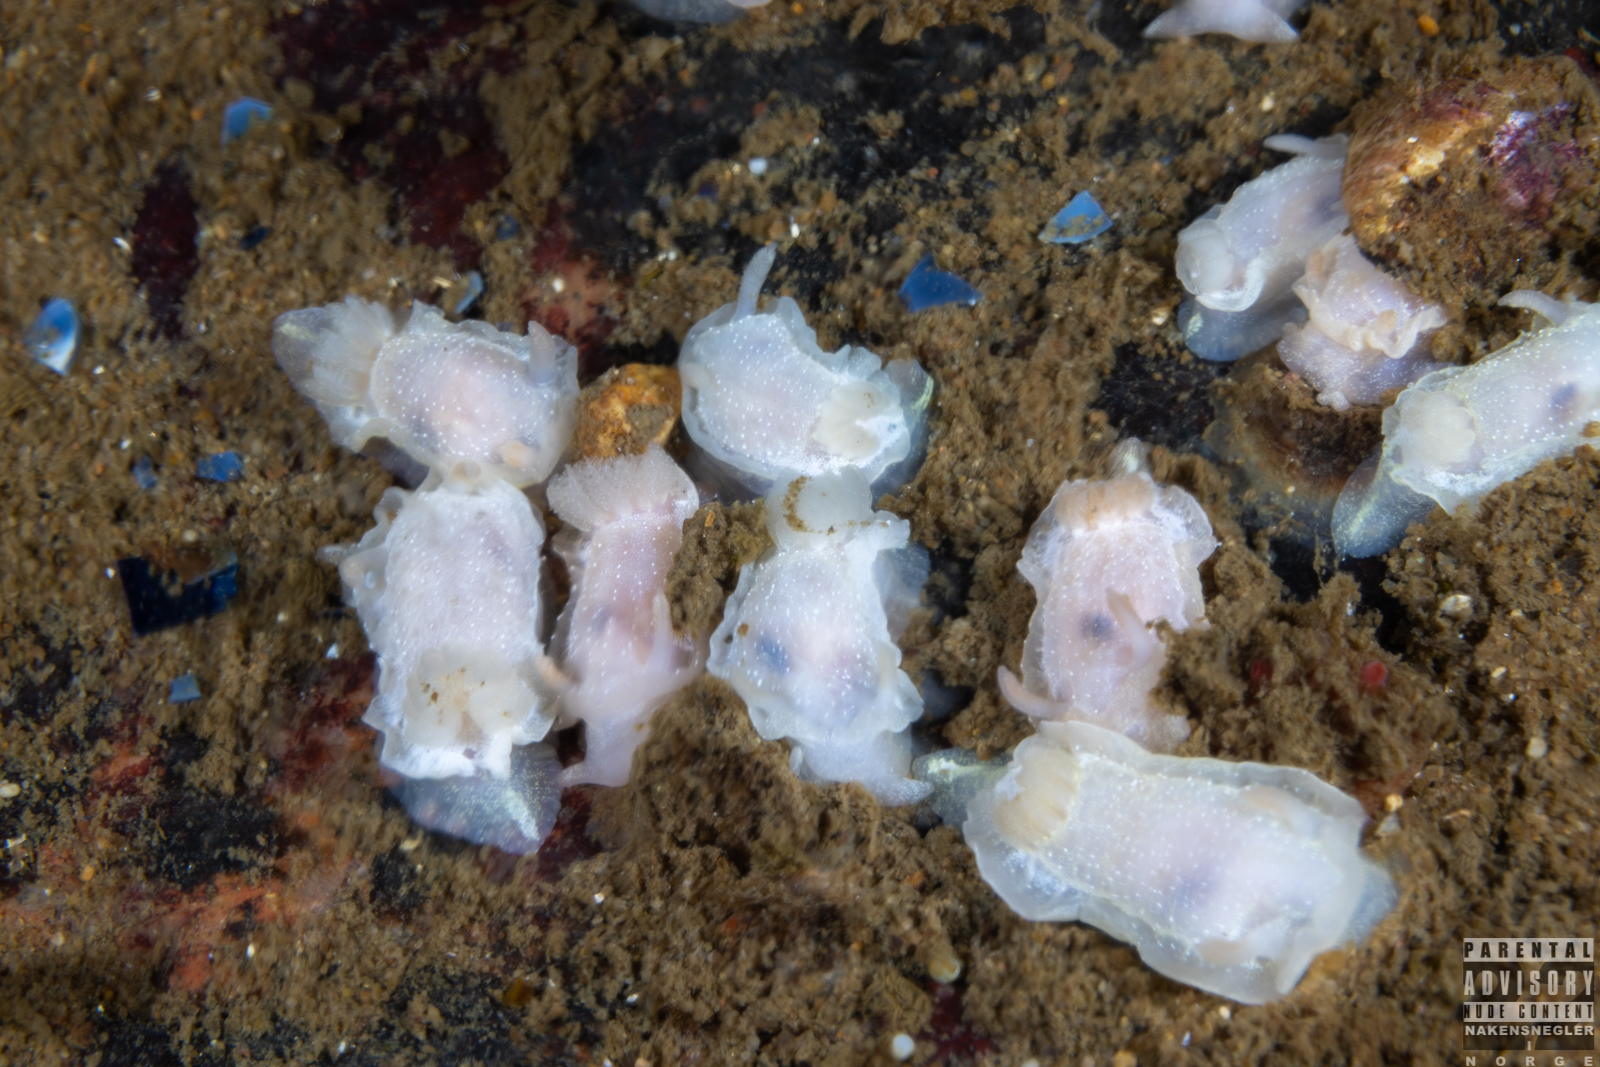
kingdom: Animalia
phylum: Mollusca
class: Gastropoda
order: Nudibranchia
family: Goniodorididae
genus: Okenia
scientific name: Okenia
